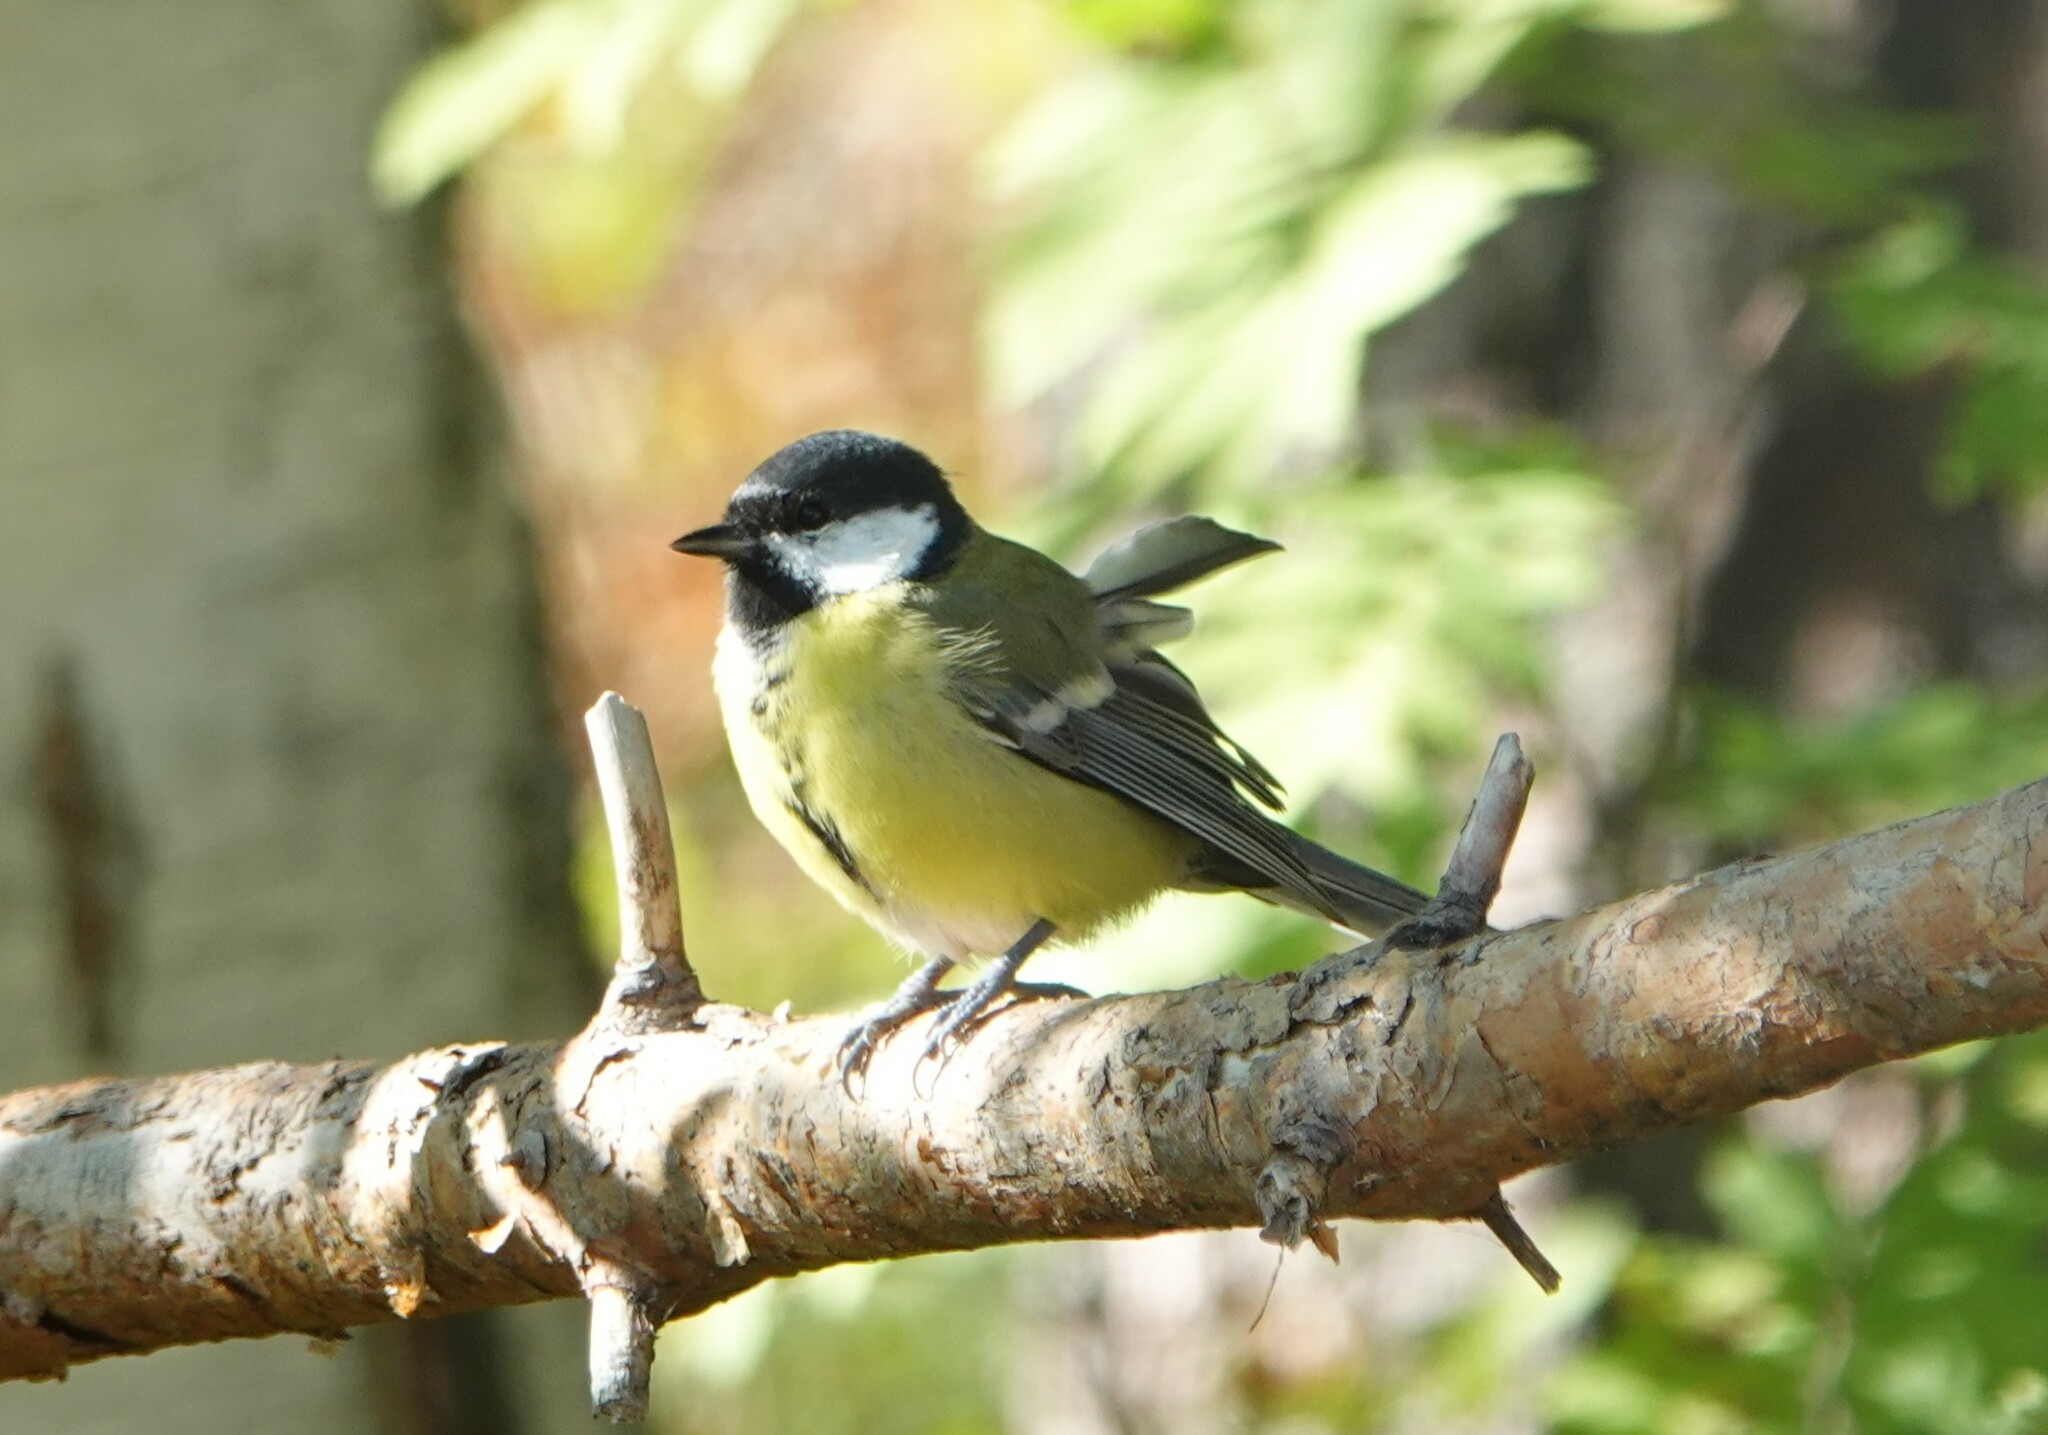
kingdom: Animalia
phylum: Chordata
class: Aves
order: Passeriformes
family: Paridae
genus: Parus
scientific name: Parus major
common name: Great tit
